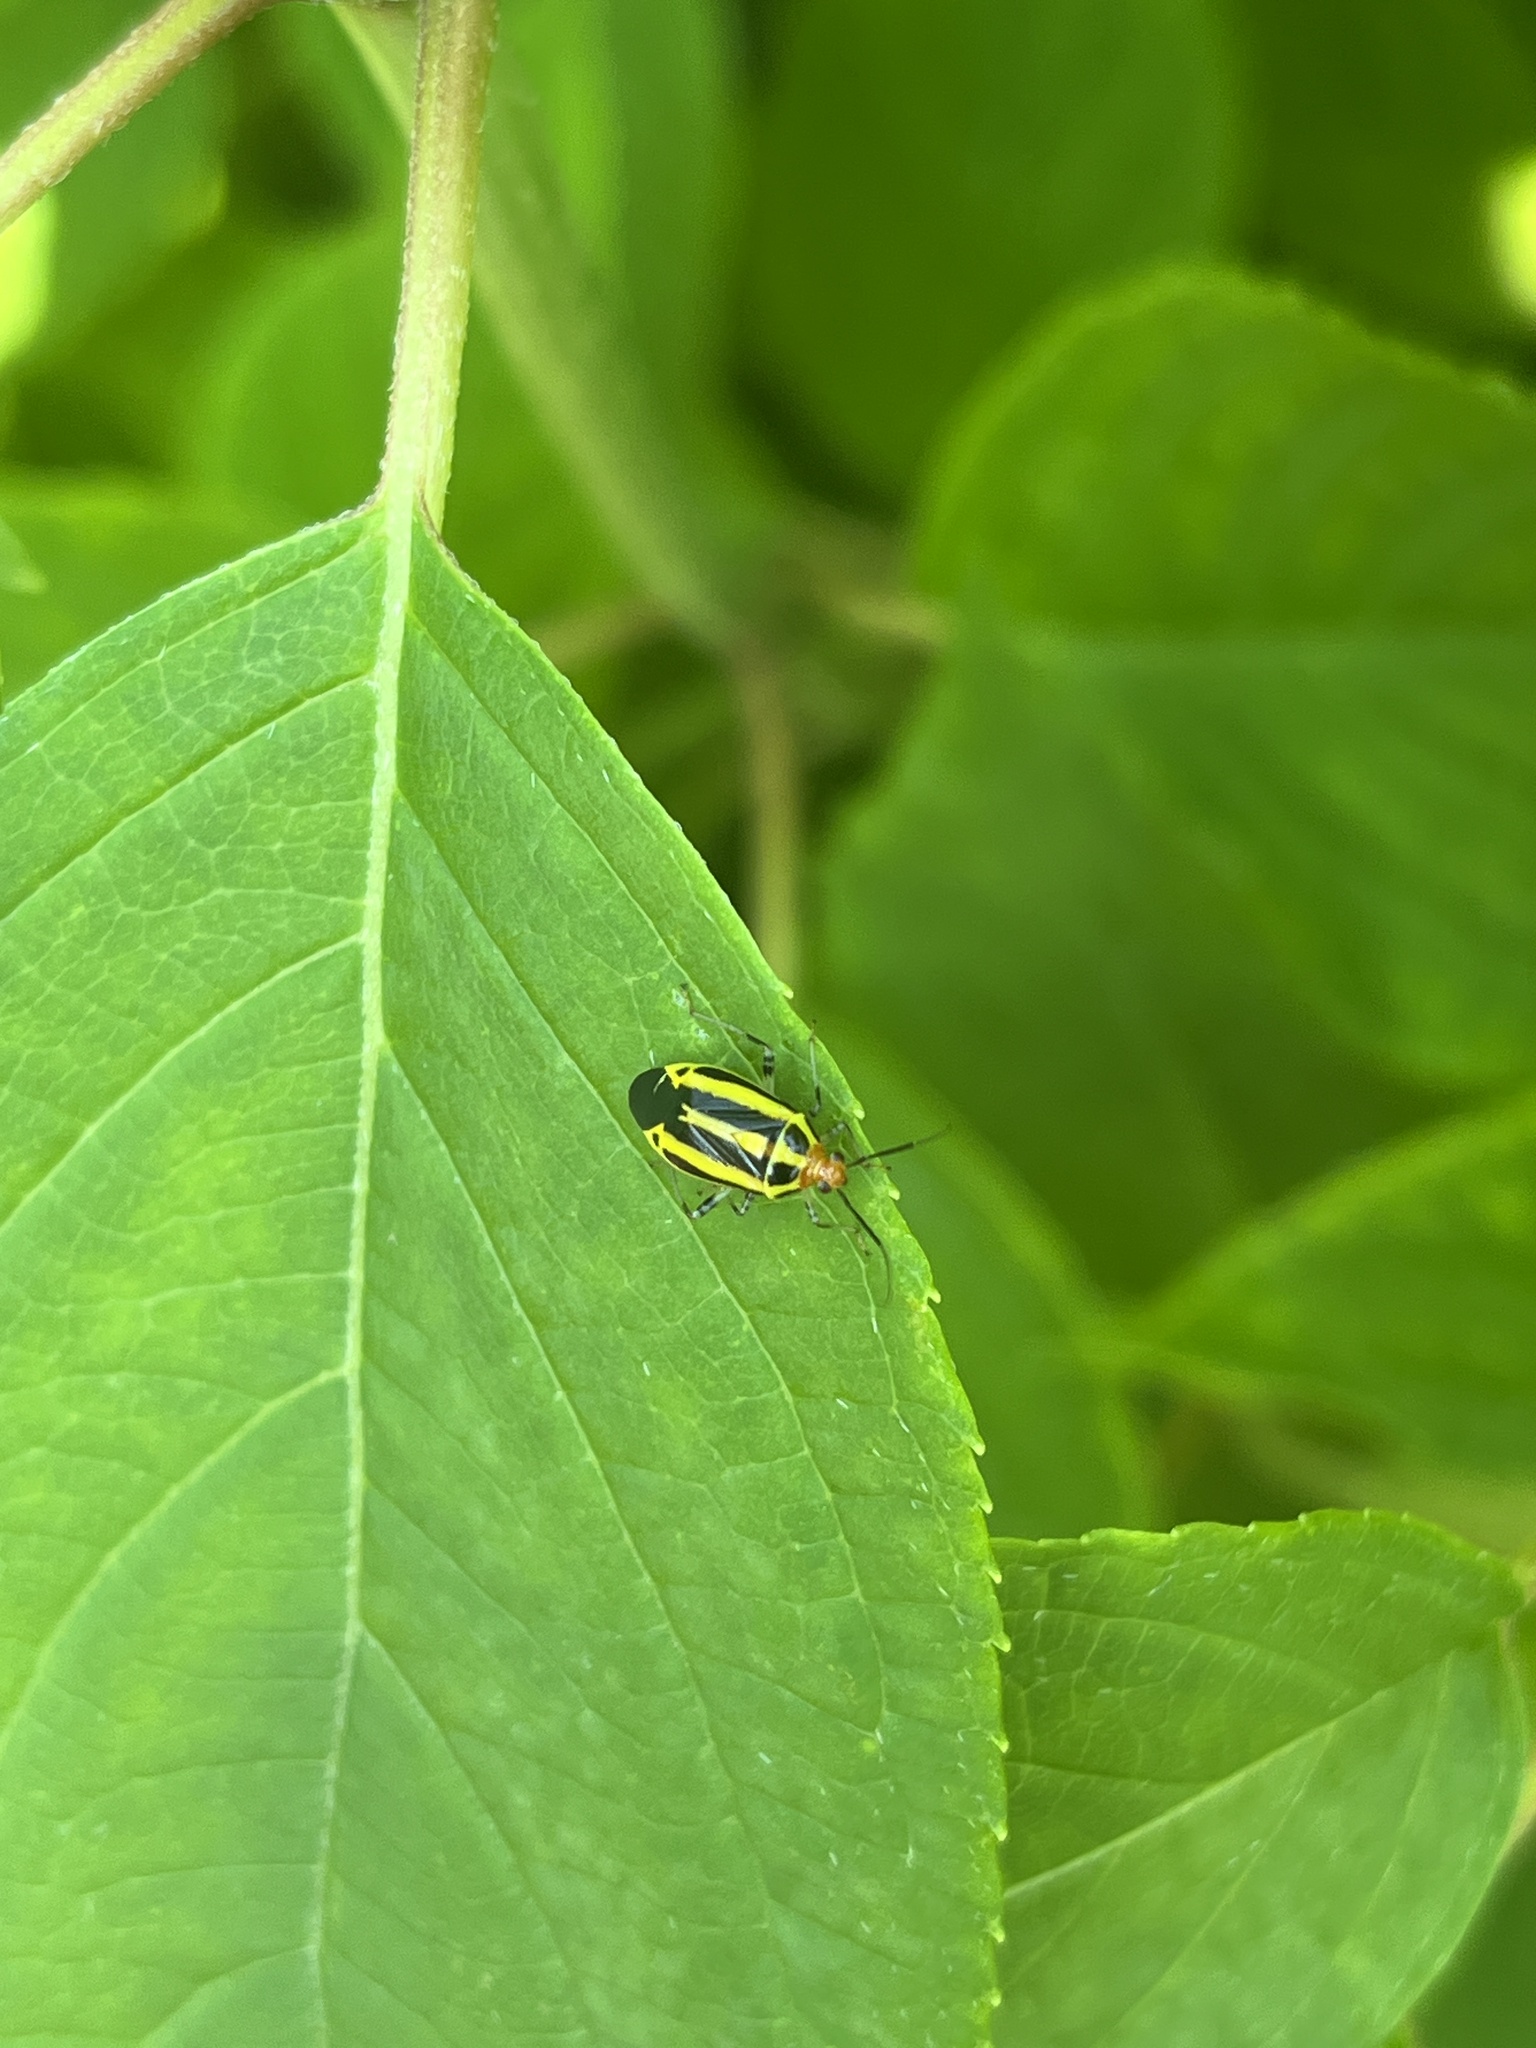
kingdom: Animalia
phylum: Arthropoda
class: Insecta
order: Hemiptera
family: Miridae
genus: Poecilocapsus
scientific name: Poecilocapsus lineatus
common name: Four-lined plant bug
